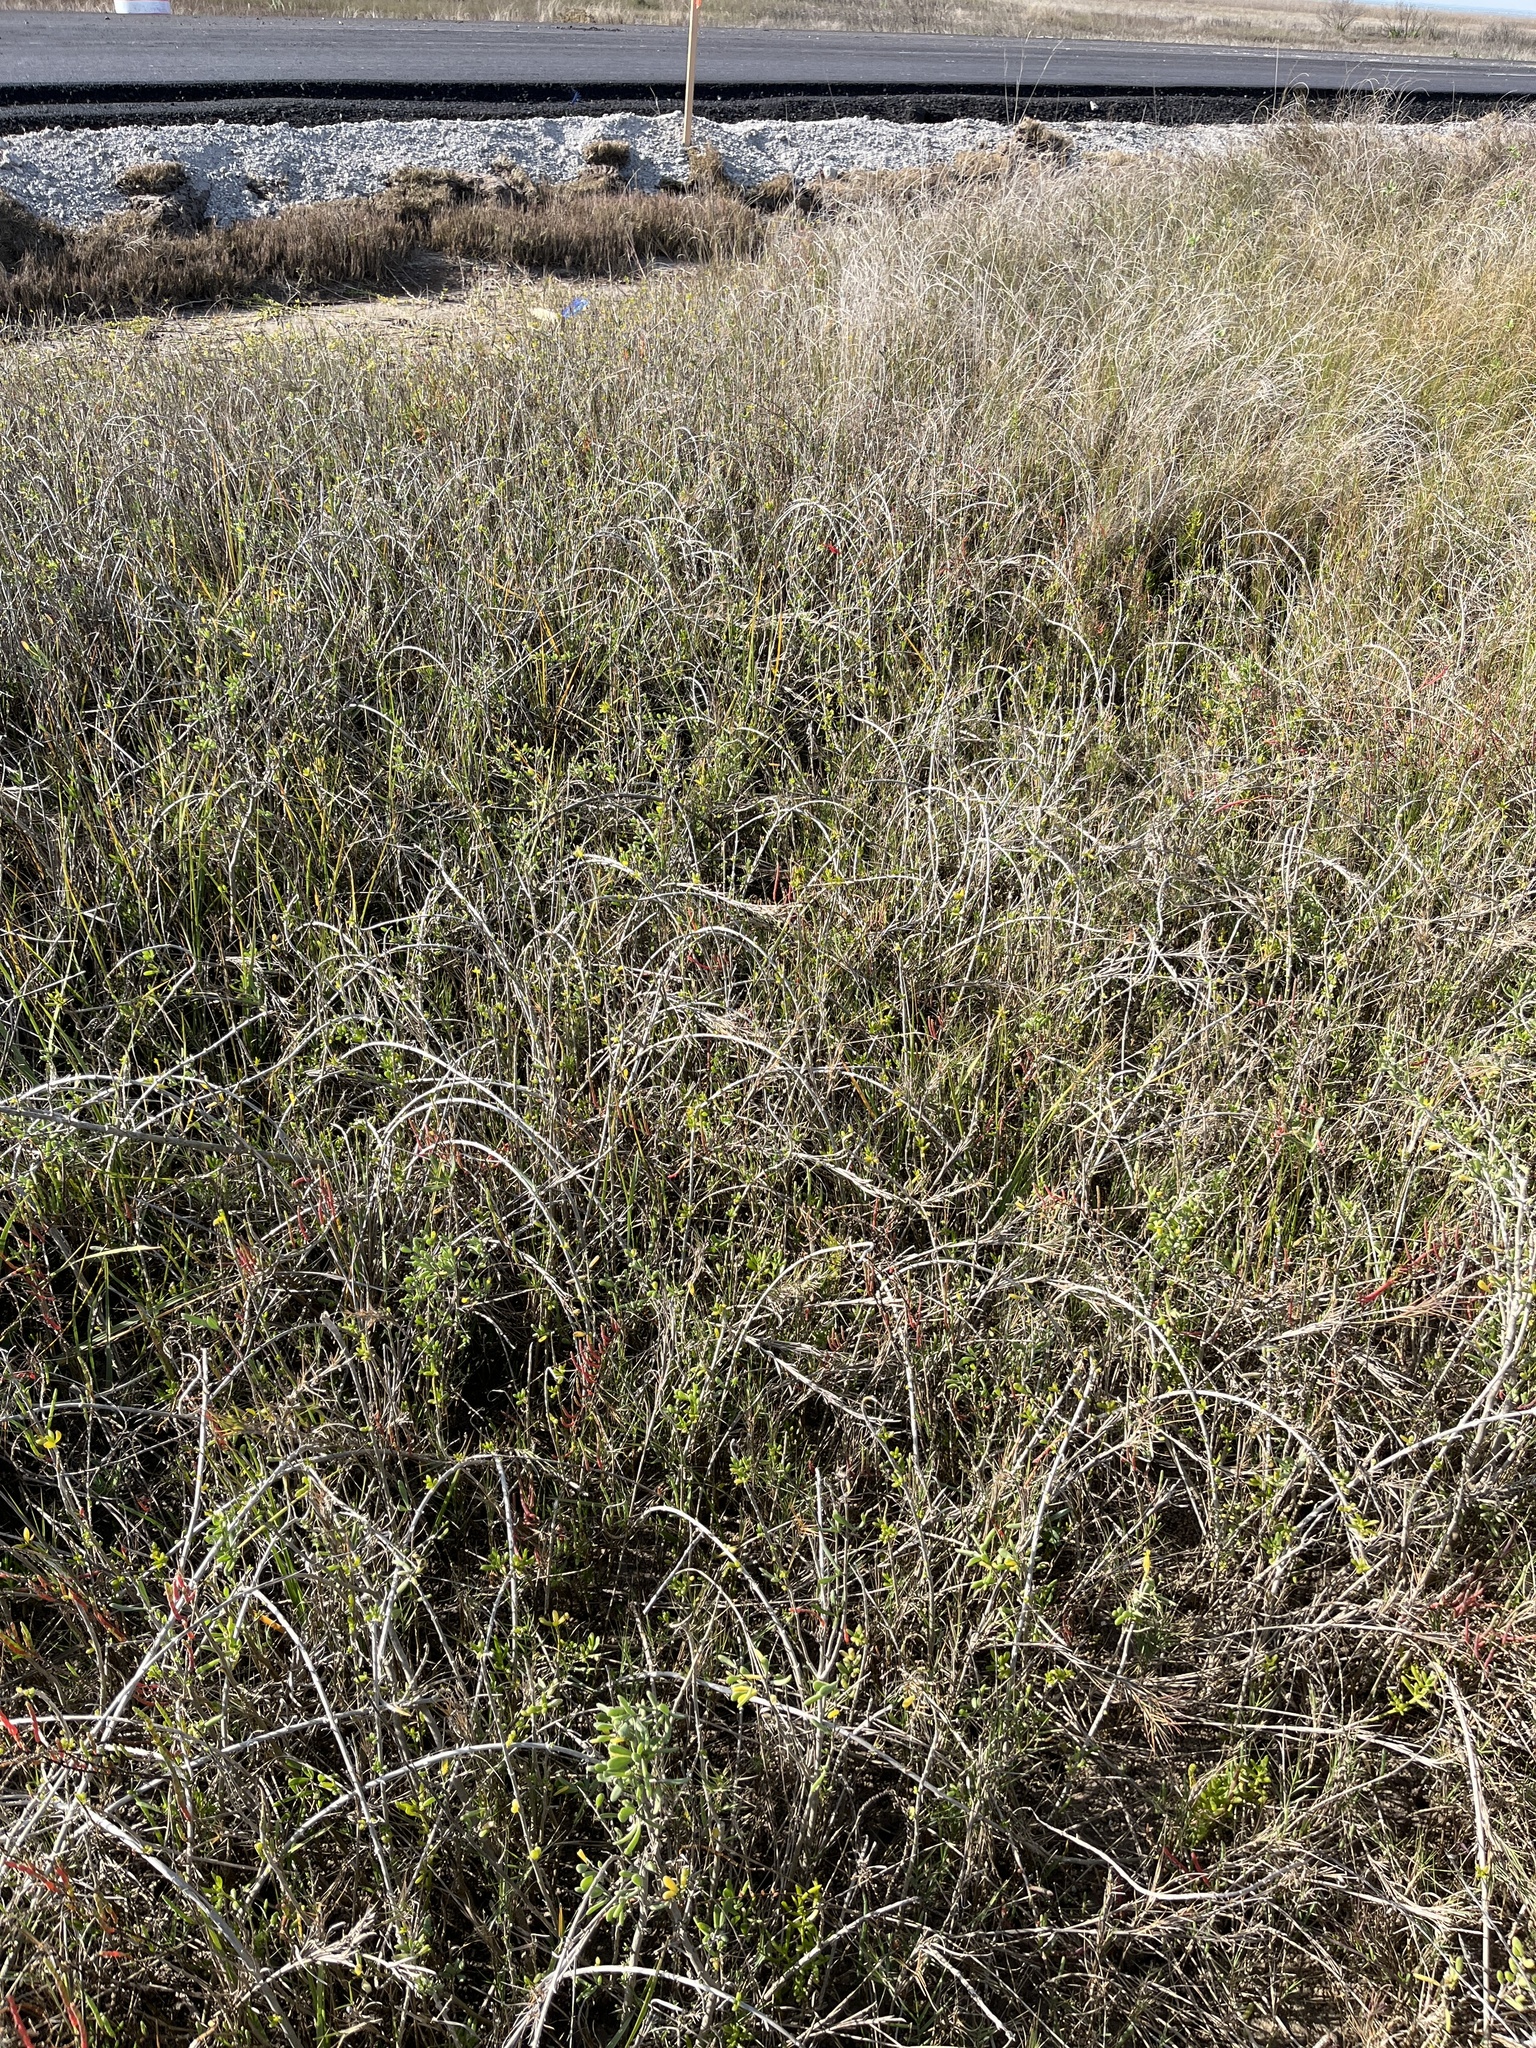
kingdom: Plantae
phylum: Tracheophyta
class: Magnoliopsida
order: Brassicales
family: Bataceae
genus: Batis
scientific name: Batis maritima
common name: Turtleweed
